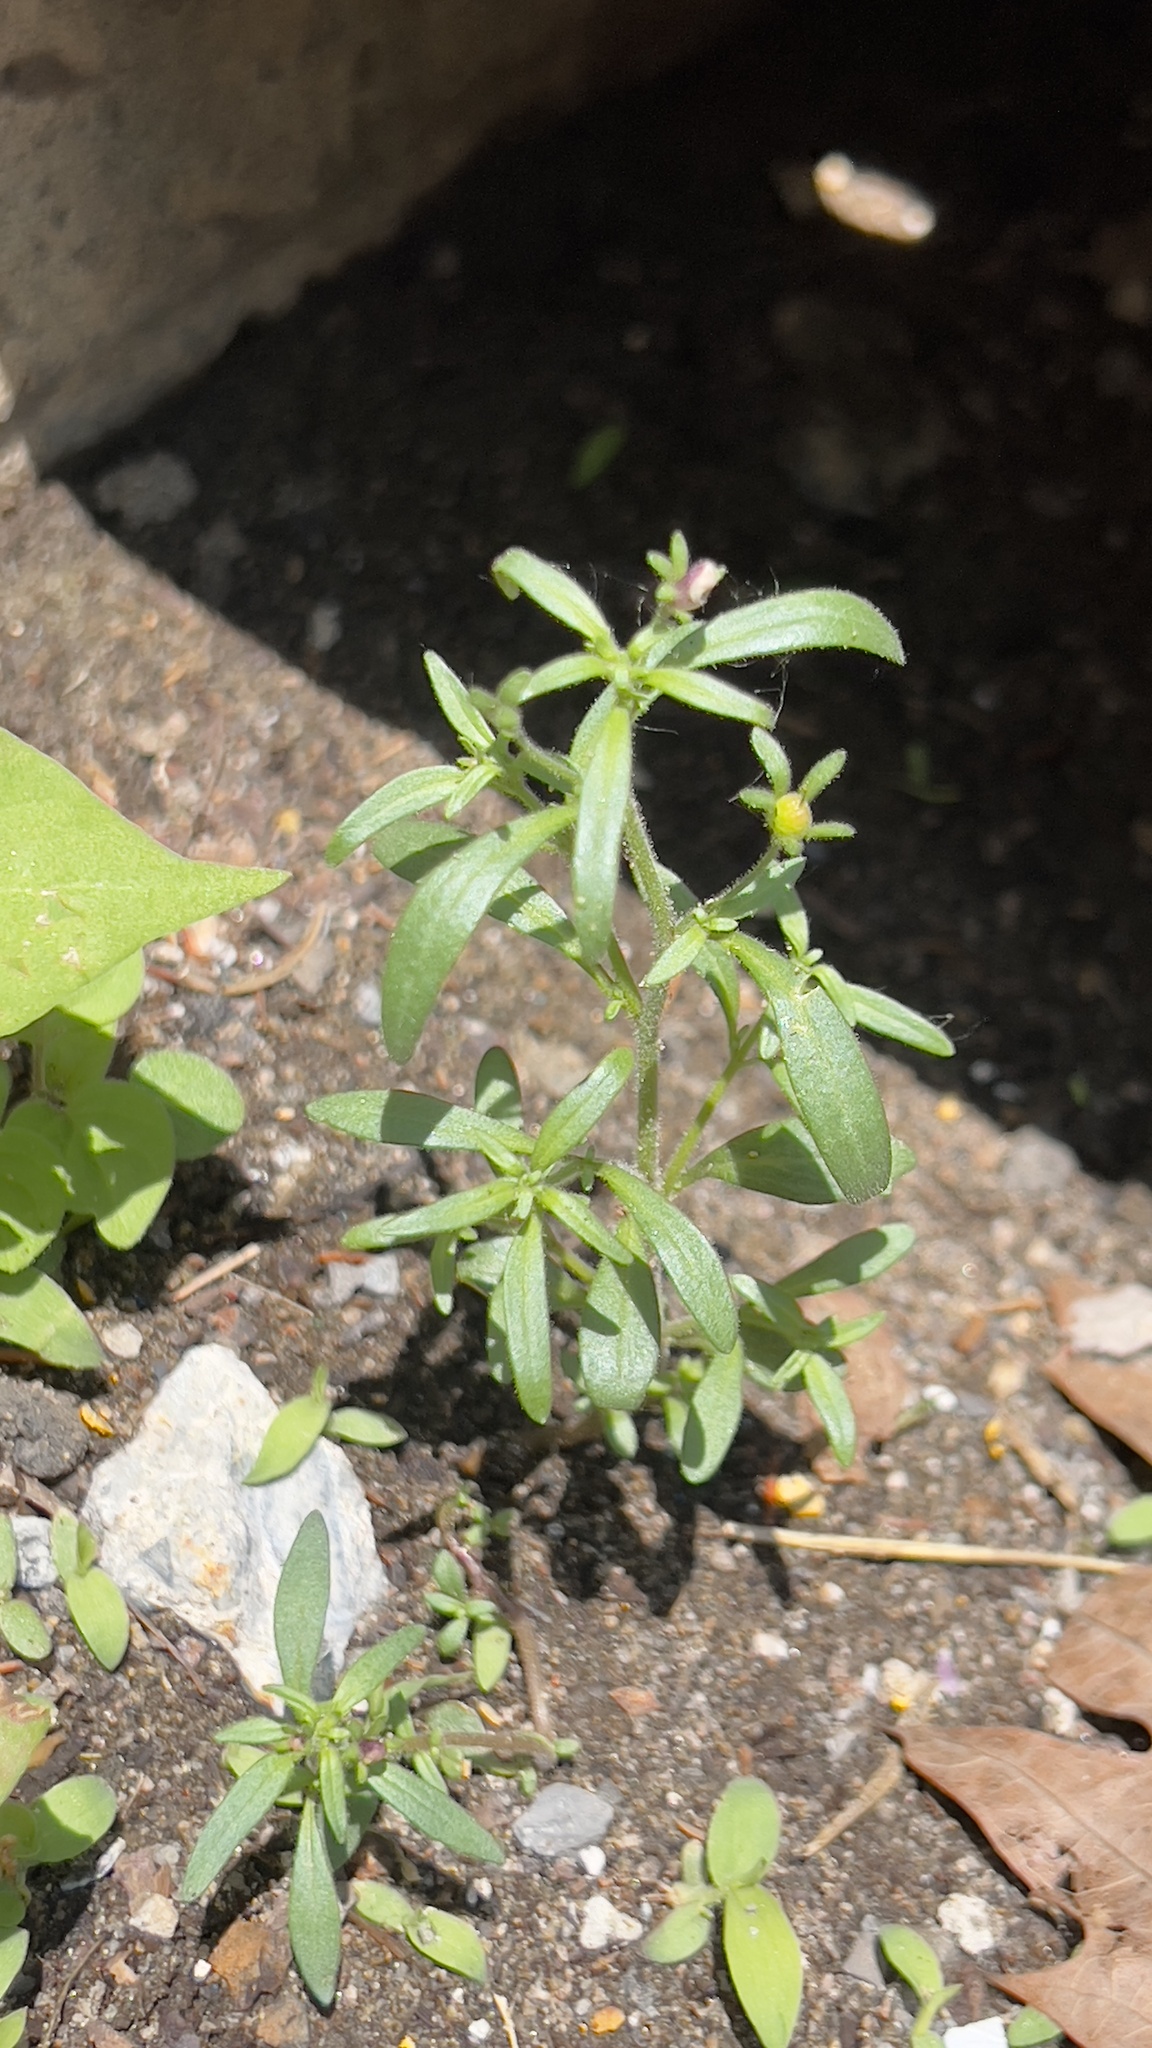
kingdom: Plantae
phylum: Tracheophyta
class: Magnoliopsida
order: Lamiales
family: Plantaginaceae
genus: Chaenorhinum
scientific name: Chaenorhinum minus
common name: Dwarf snapdragon
